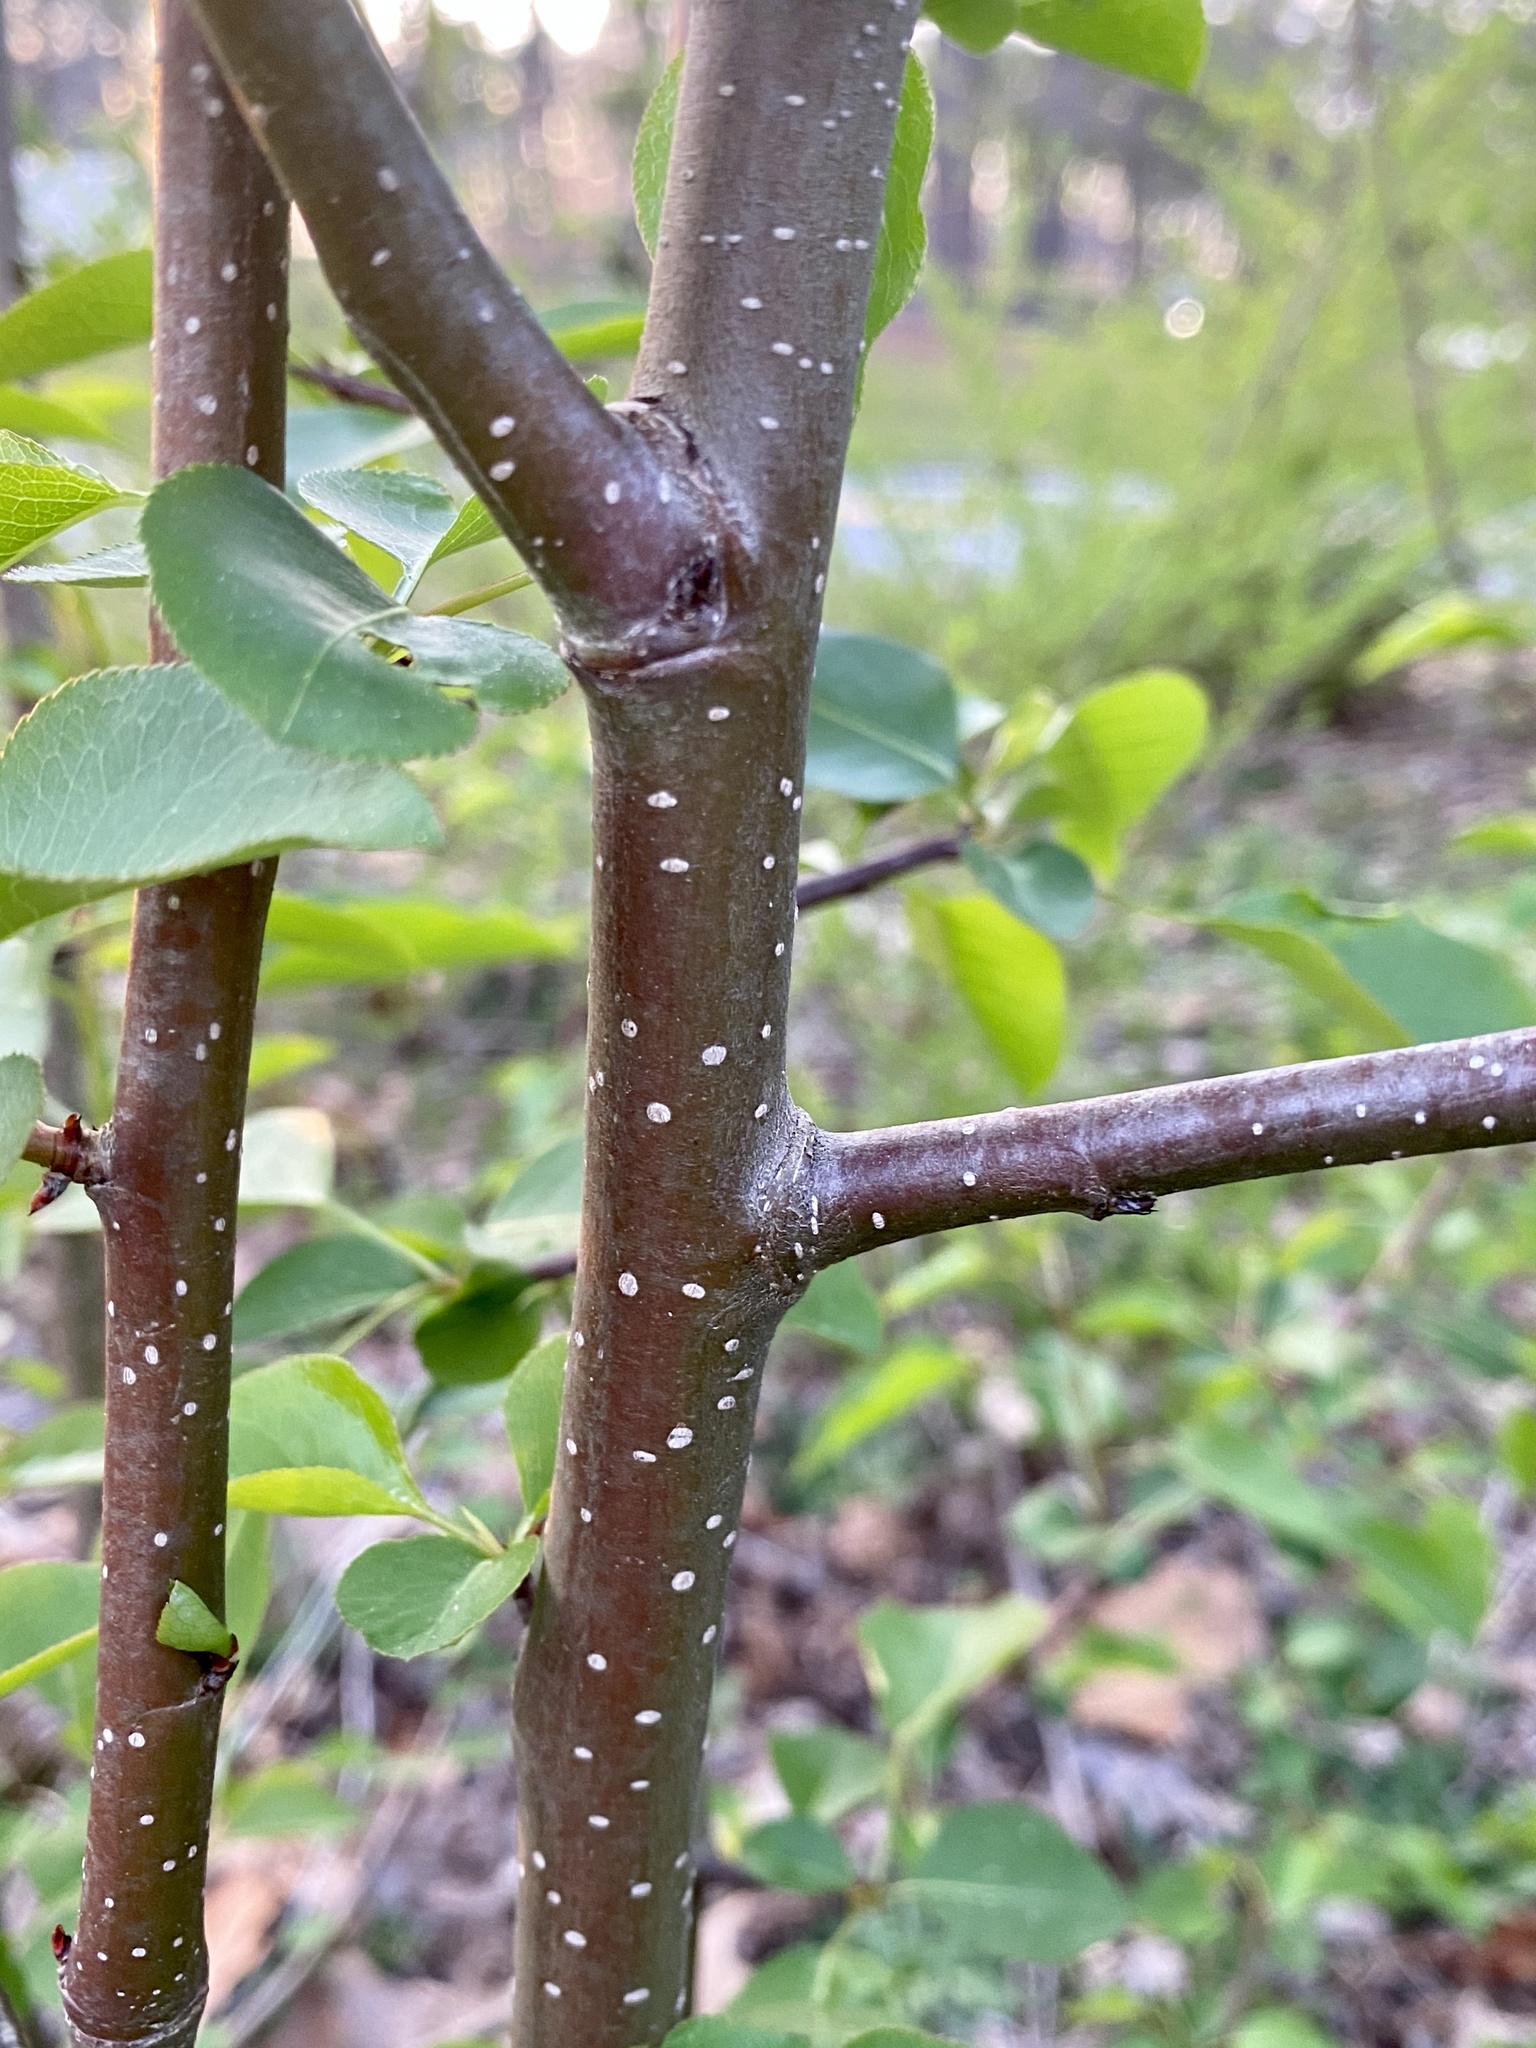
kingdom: Plantae
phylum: Tracheophyta
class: Magnoliopsida
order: Rosales
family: Rosaceae
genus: Pyrus
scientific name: Pyrus calleryana
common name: Callery pear
